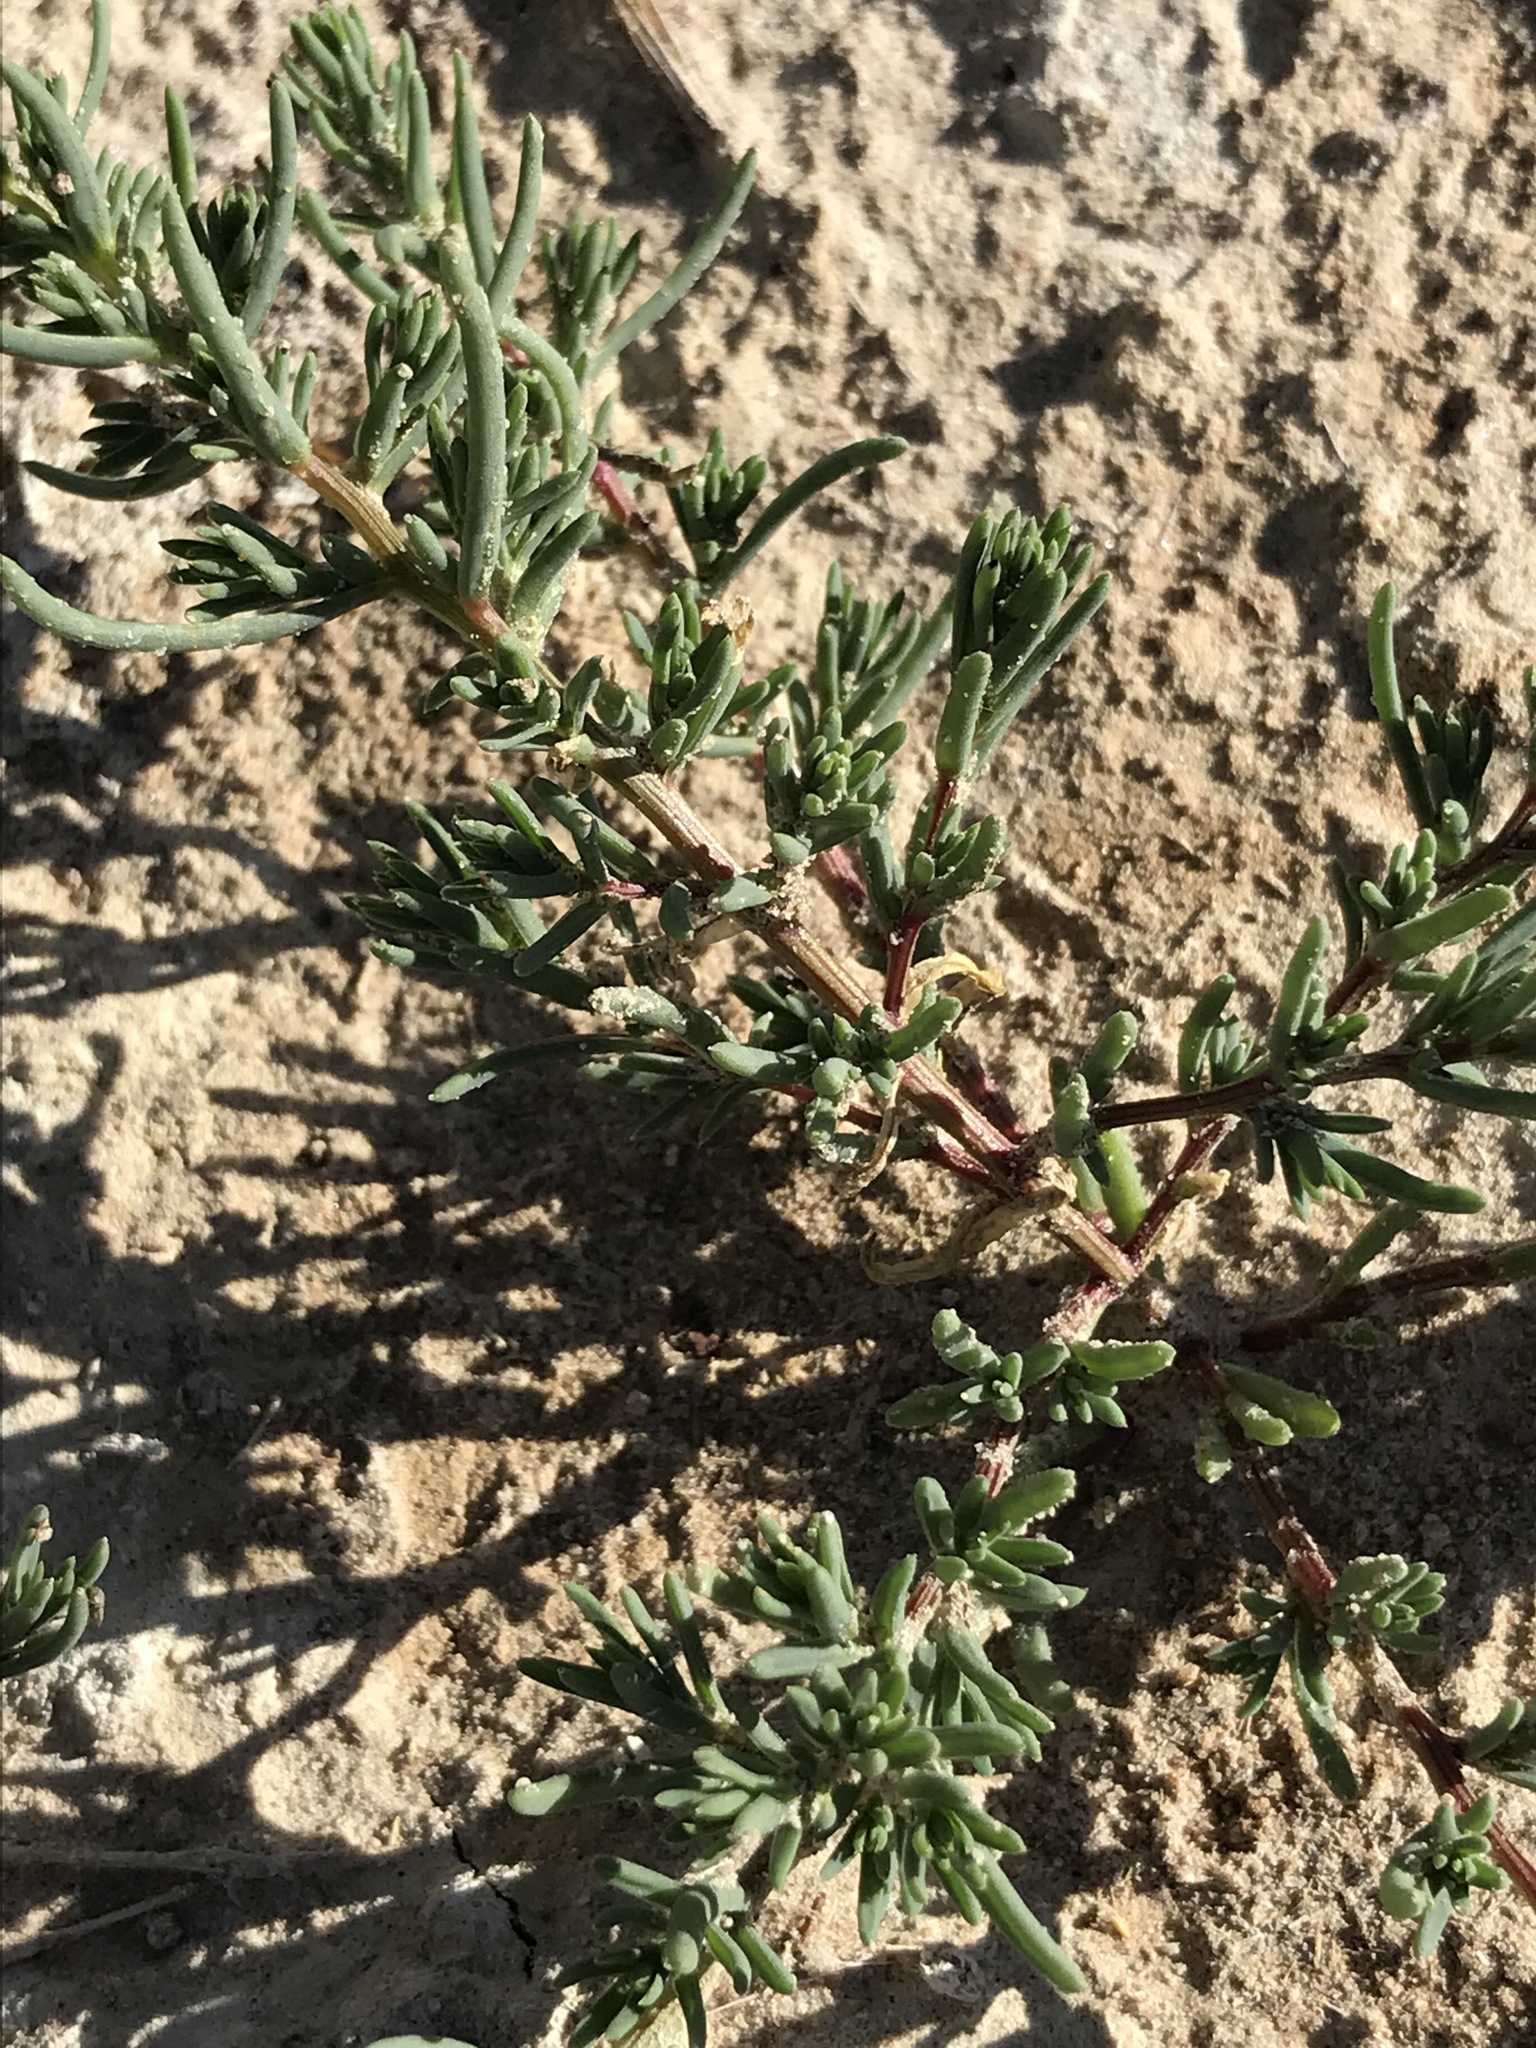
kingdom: Plantae
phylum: Tracheophyta
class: Magnoliopsida
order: Caryophyllales
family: Amaranthaceae
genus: Suaeda
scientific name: Suaeda calceoliformis
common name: Pursh's seepweed
